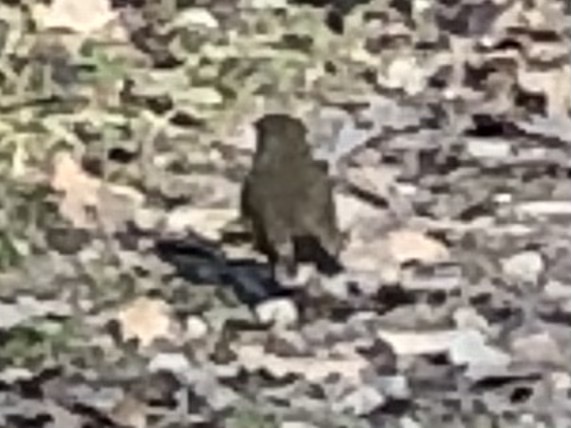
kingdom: Animalia
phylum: Chordata
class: Aves
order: Passeriformes
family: Muscicapidae
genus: Erithacus
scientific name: Erithacus rubecula
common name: European robin
